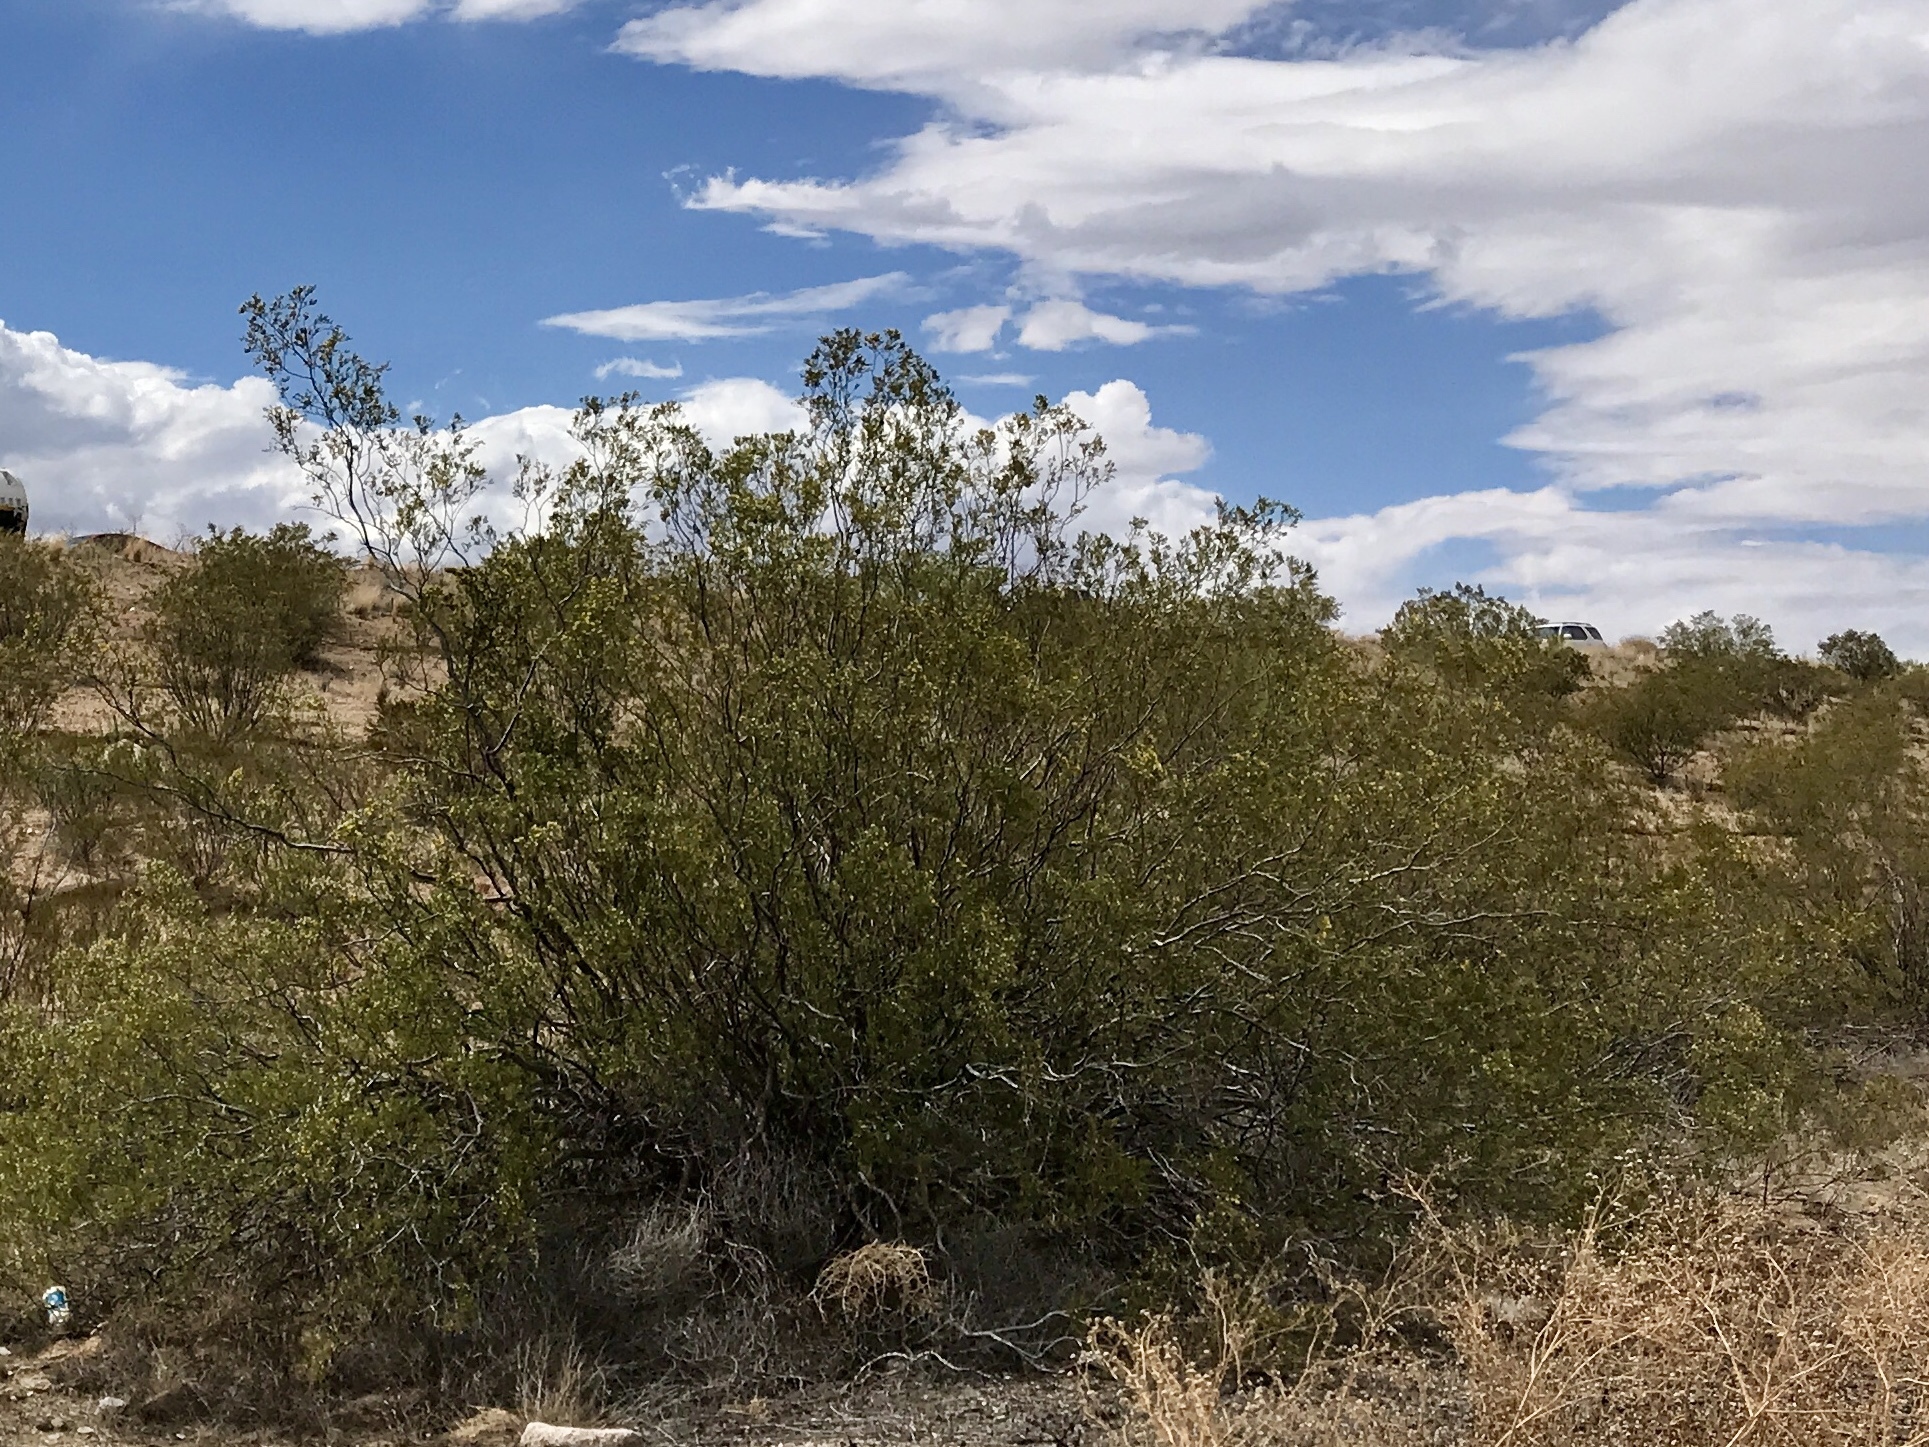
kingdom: Plantae
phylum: Tracheophyta
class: Magnoliopsida
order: Zygophyllales
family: Zygophyllaceae
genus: Larrea
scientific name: Larrea tridentata
